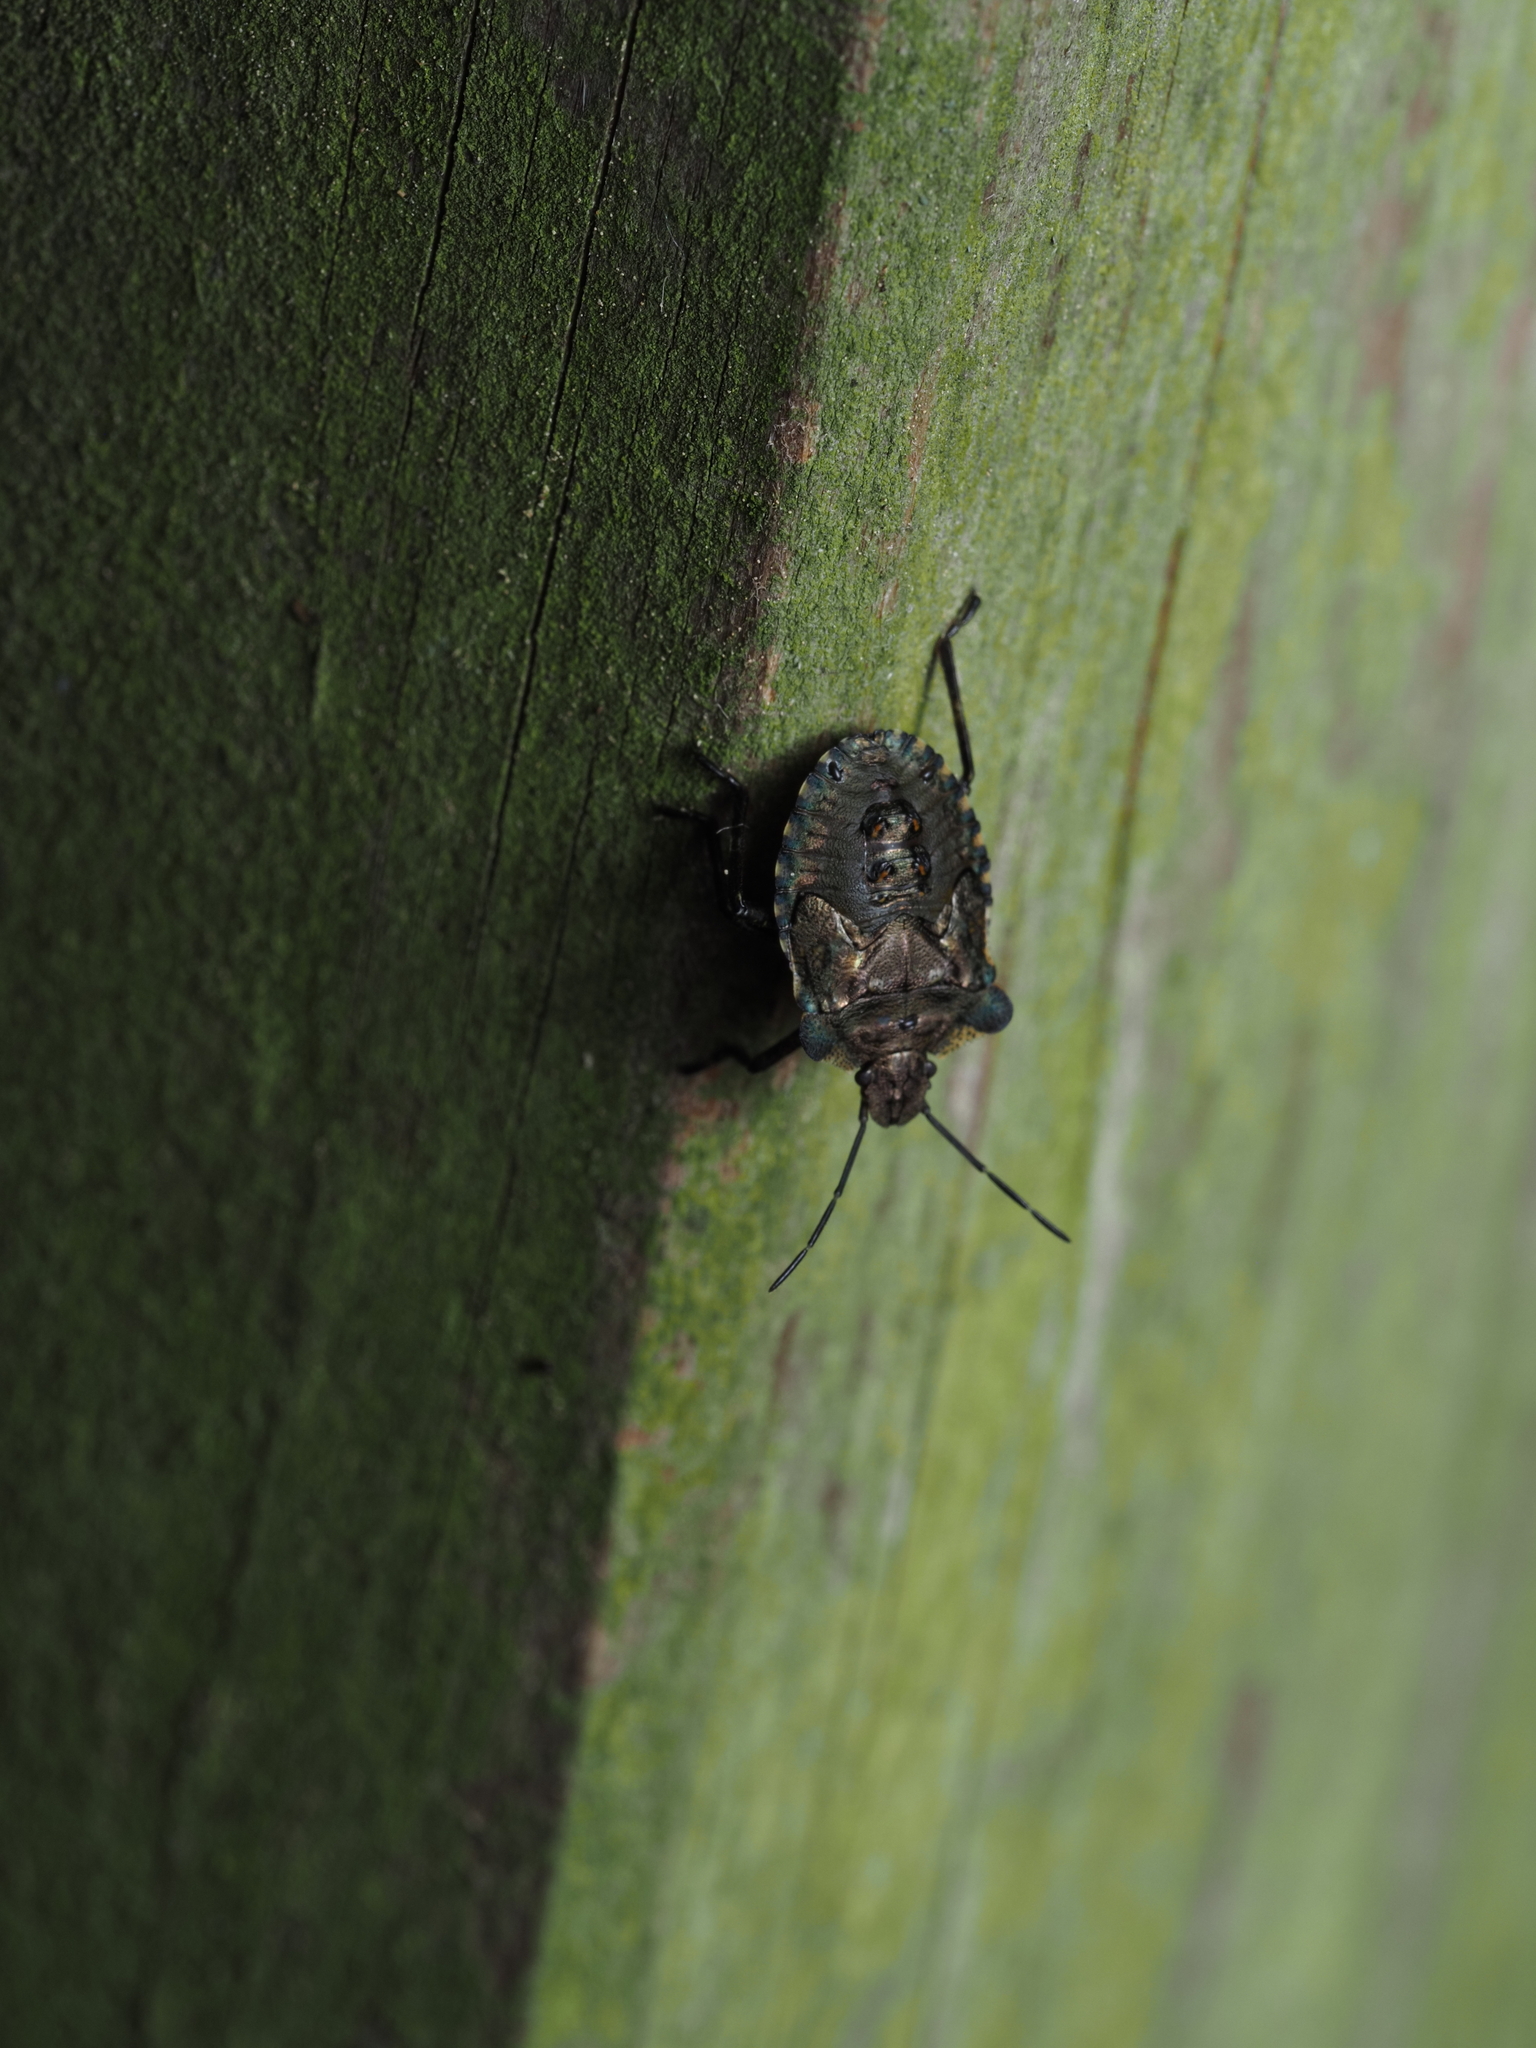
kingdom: Animalia
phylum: Arthropoda
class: Insecta
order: Hemiptera
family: Pentatomidae
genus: Pentatoma
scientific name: Pentatoma rufipes
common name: Forest bug
